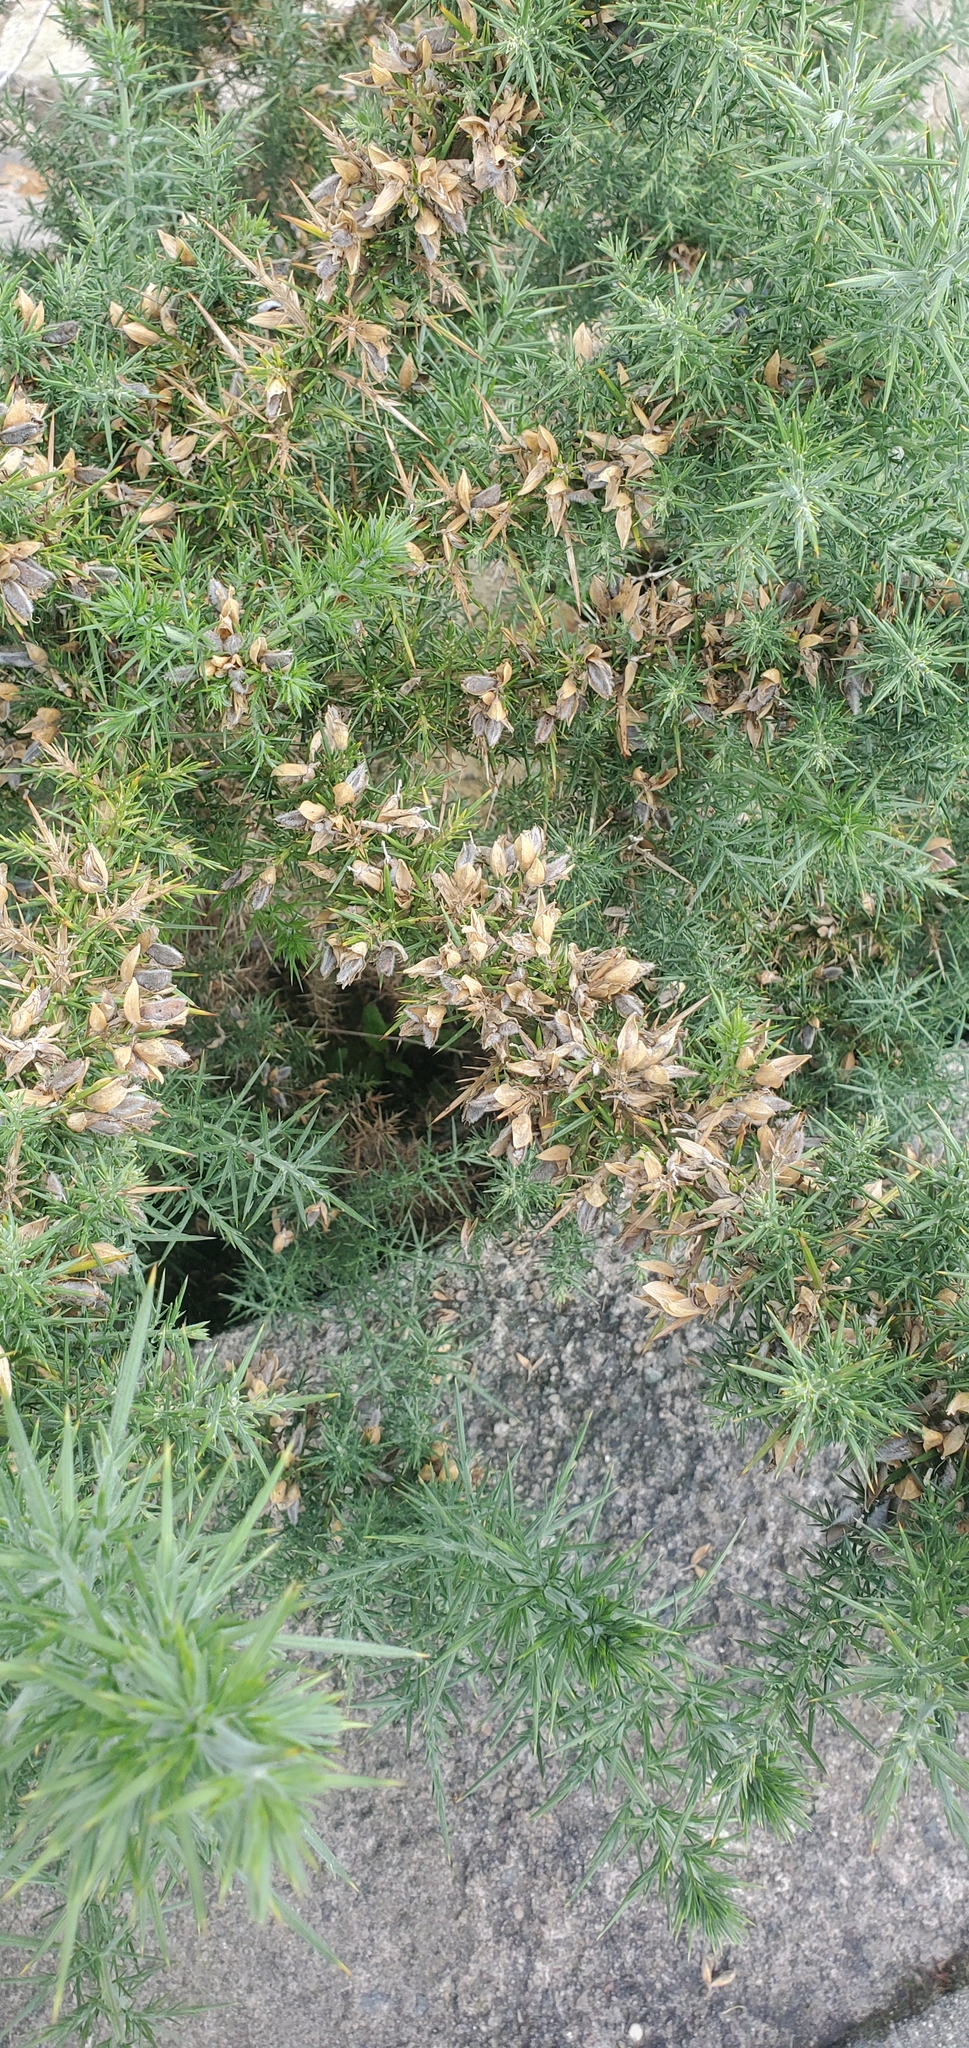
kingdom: Plantae
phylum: Tracheophyta
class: Magnoliopsida
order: Fabales
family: Fabaceae
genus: Ulex
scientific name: Ulex europaeus
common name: Common gorse
